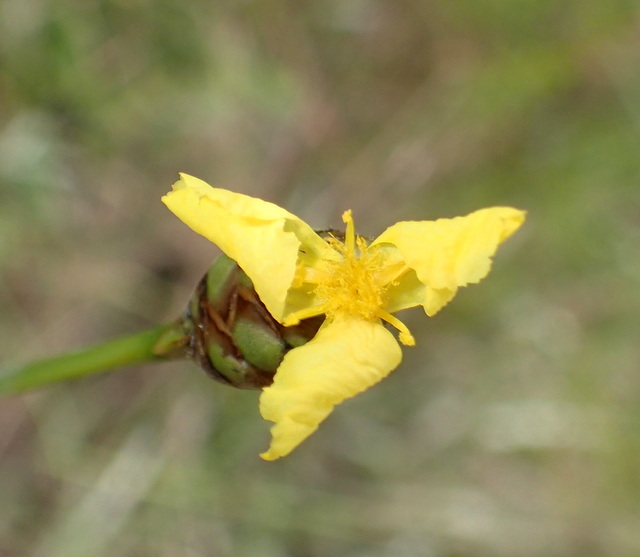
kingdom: Plantae
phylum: Tracheophyta
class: Liliopsida
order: Poales
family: Xyridaceae
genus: Xyris
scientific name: Xyris ambigua
